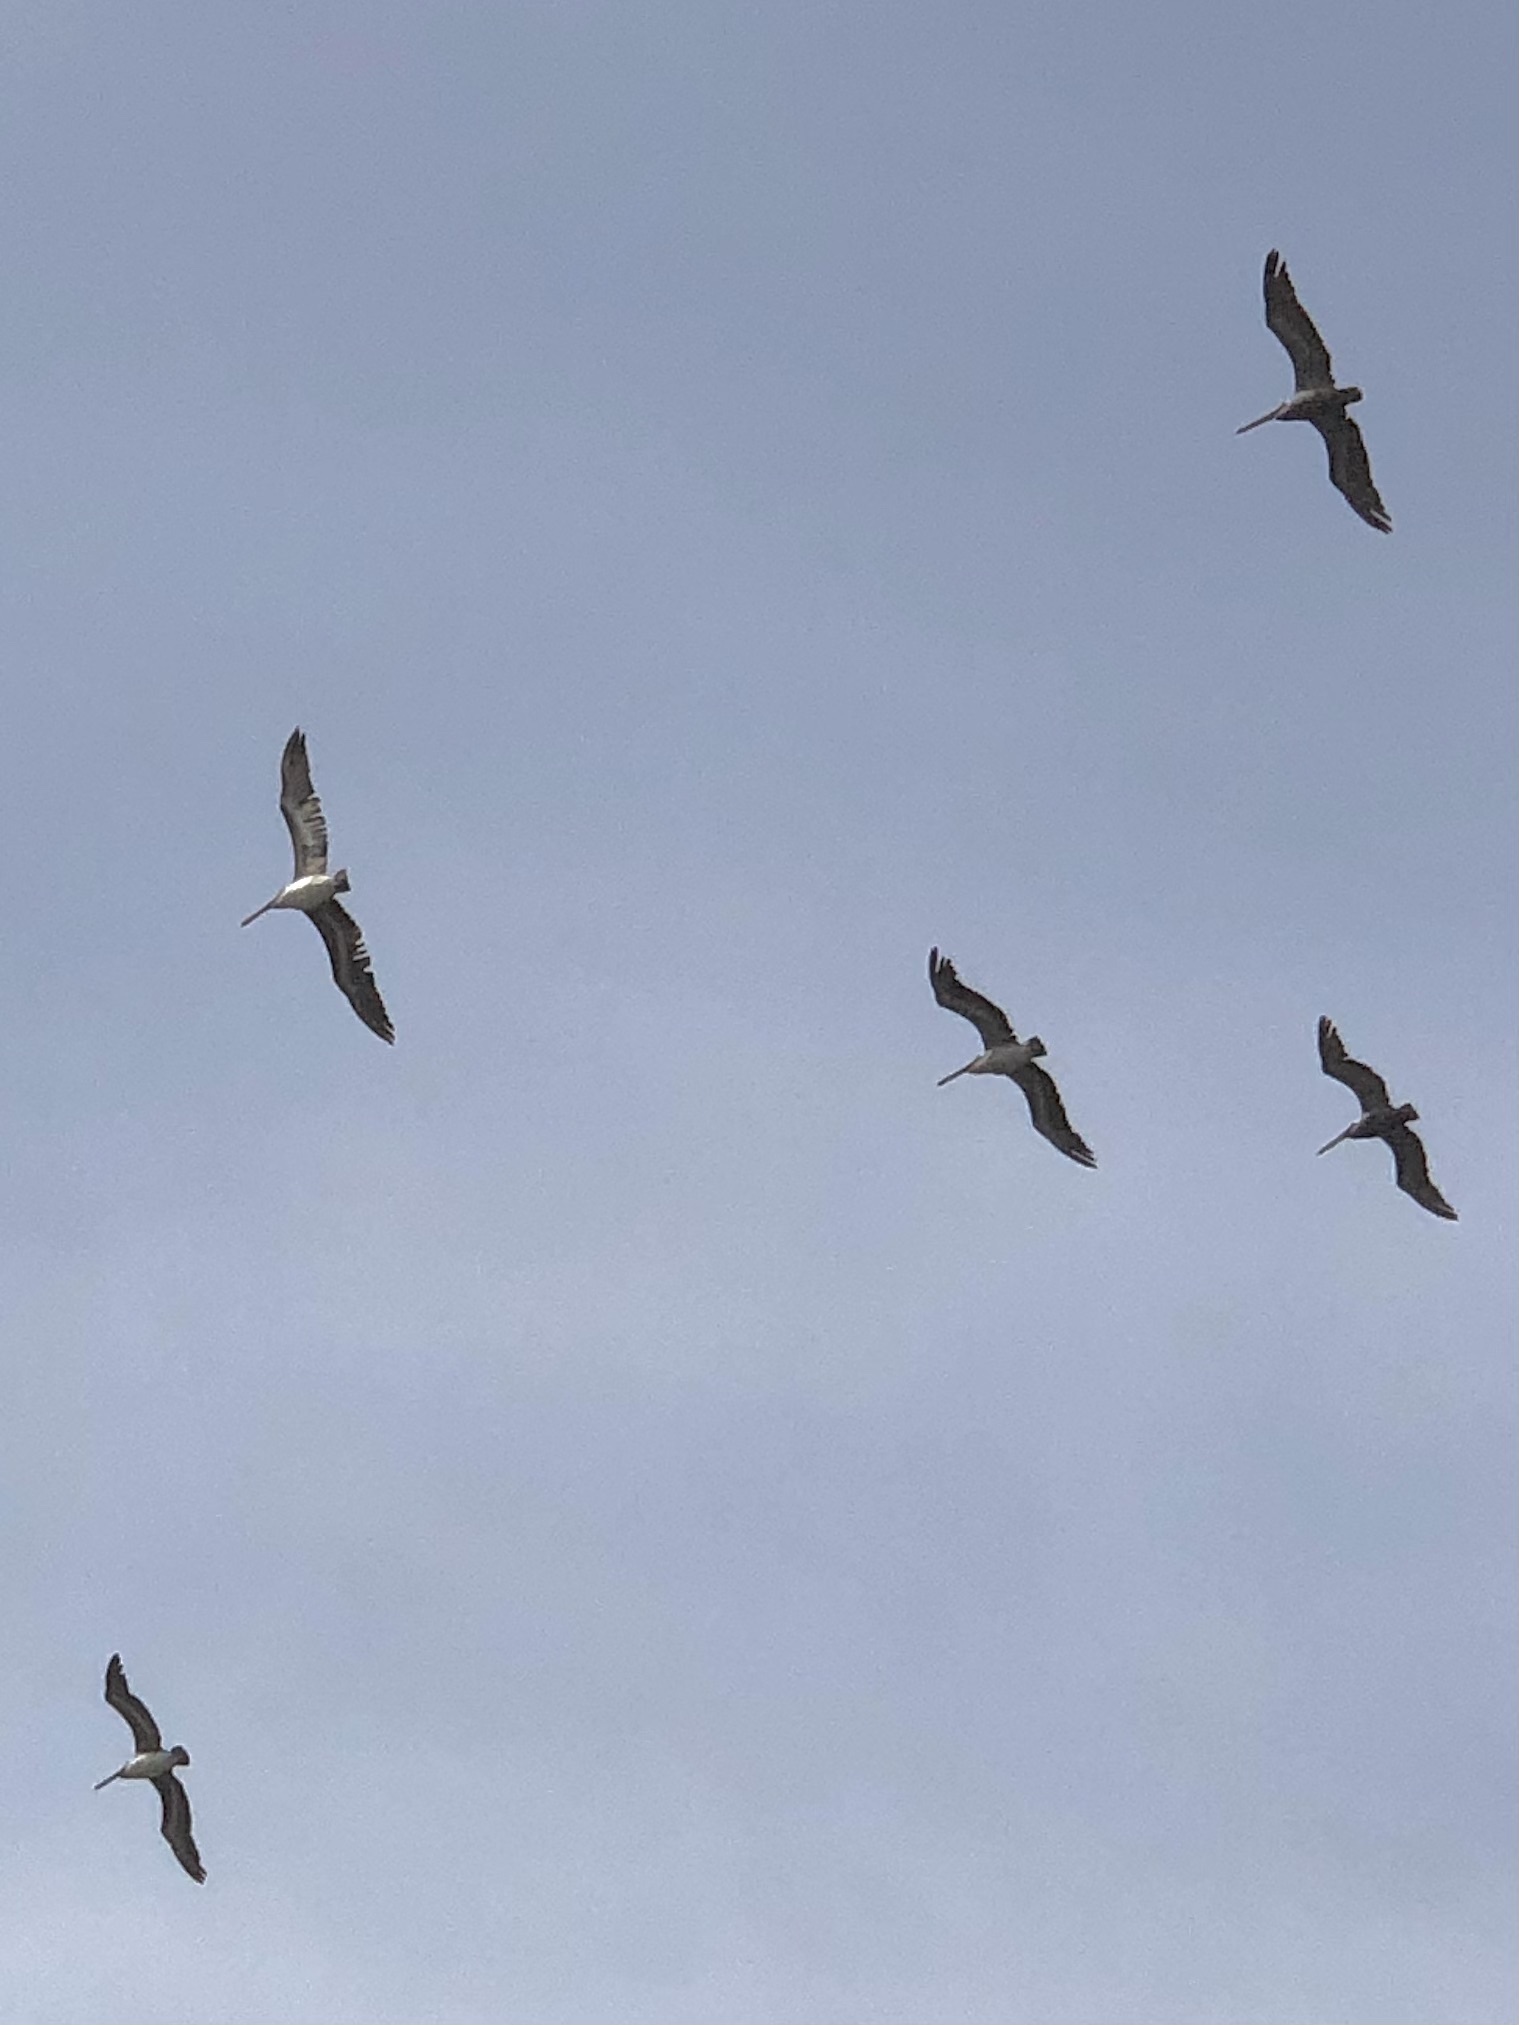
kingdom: Animalia
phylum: Chordata
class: Aves
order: Pelecaniformes
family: Pelecanidae
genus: Pelecanus
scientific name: Pelecanus occidentalis
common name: Brown pelican
